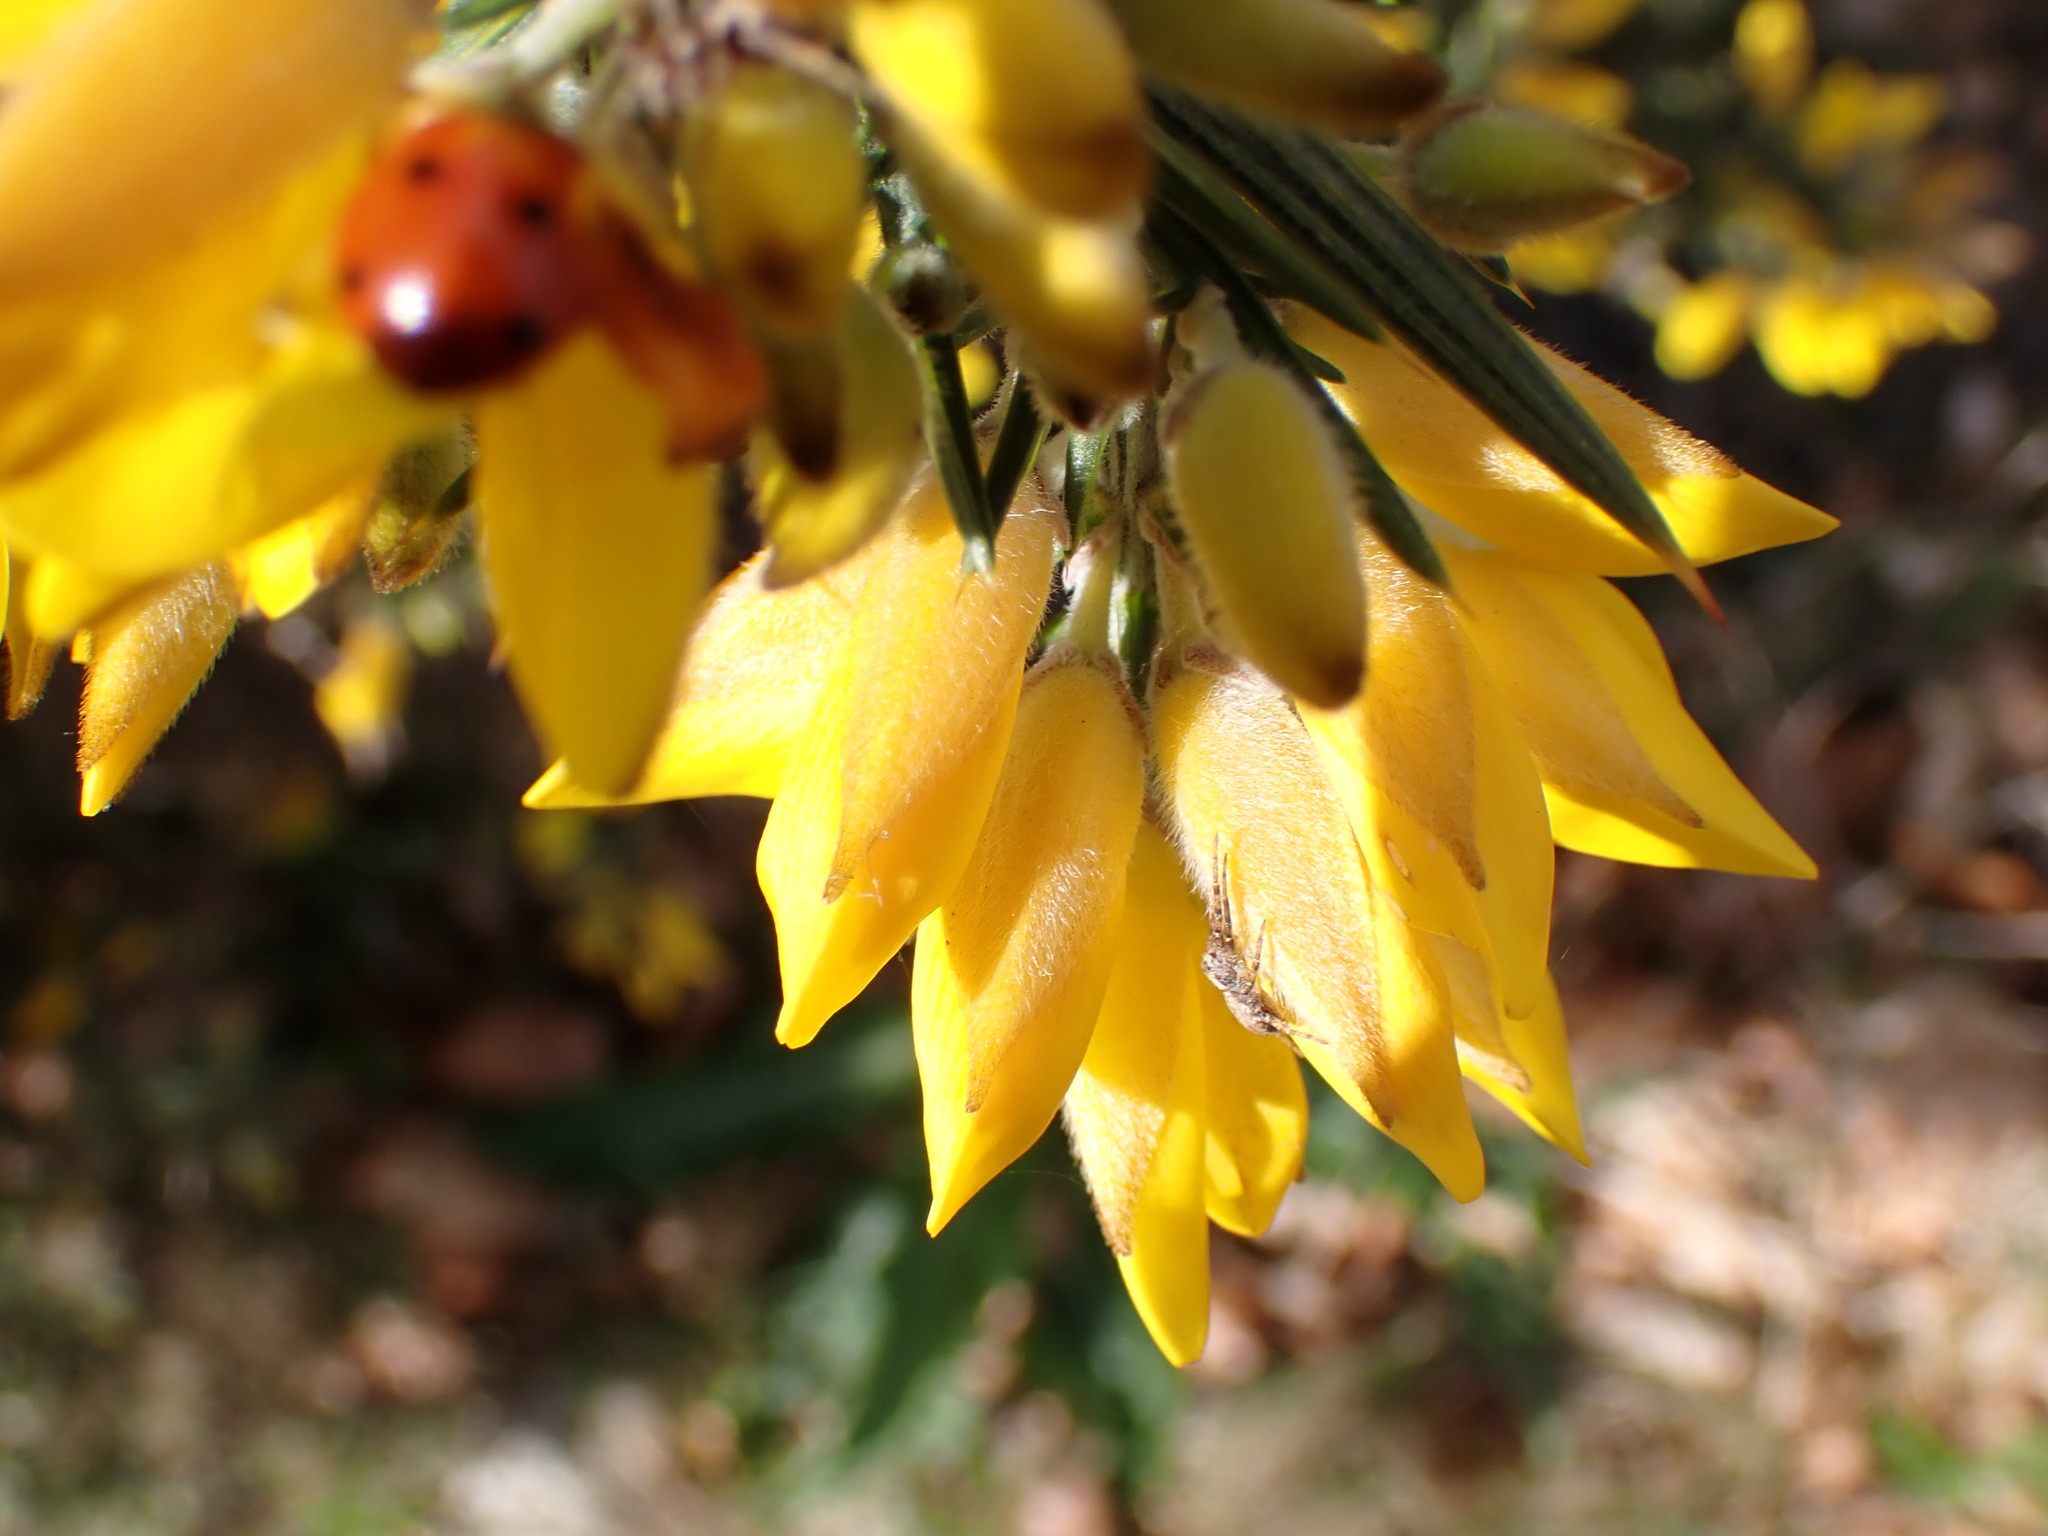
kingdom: Animalia
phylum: Arthropoda
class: Insecta
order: Coleoptera
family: Coccinellidae
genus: Coccinella
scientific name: Coccinella septempunctata
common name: Sevenspotted lady beetle
